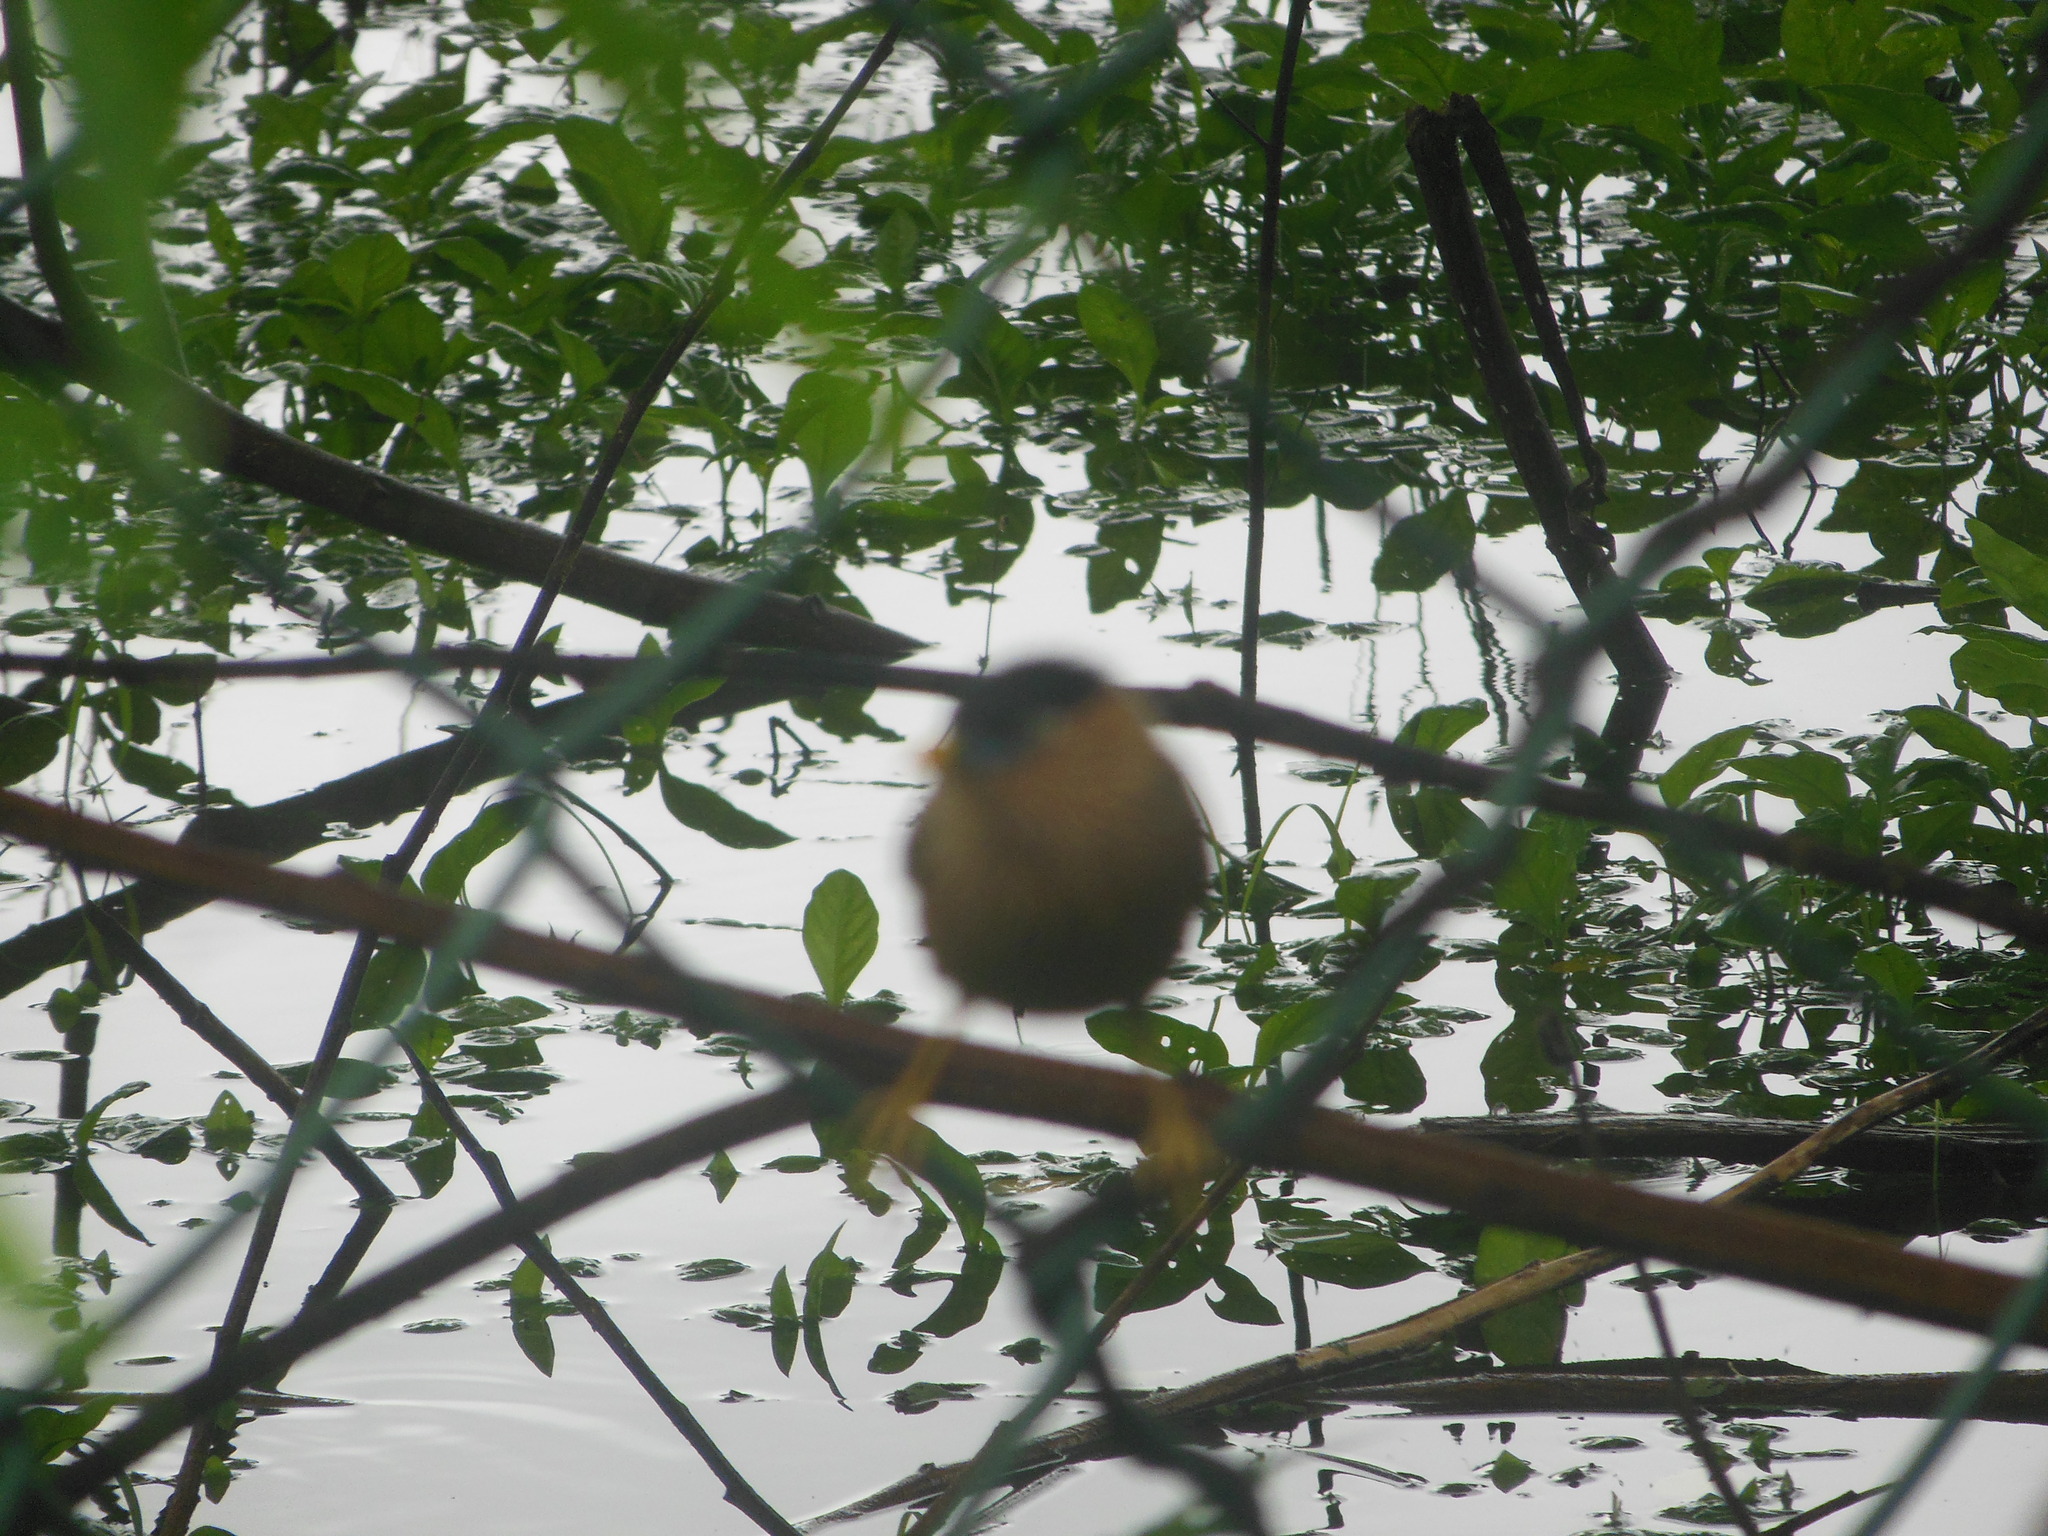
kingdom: Animalia
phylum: Chordata
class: Aves
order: Passeriformes
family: Sturnidae
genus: Sturnia
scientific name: Sturnia pagodarum
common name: Brahminy starling
